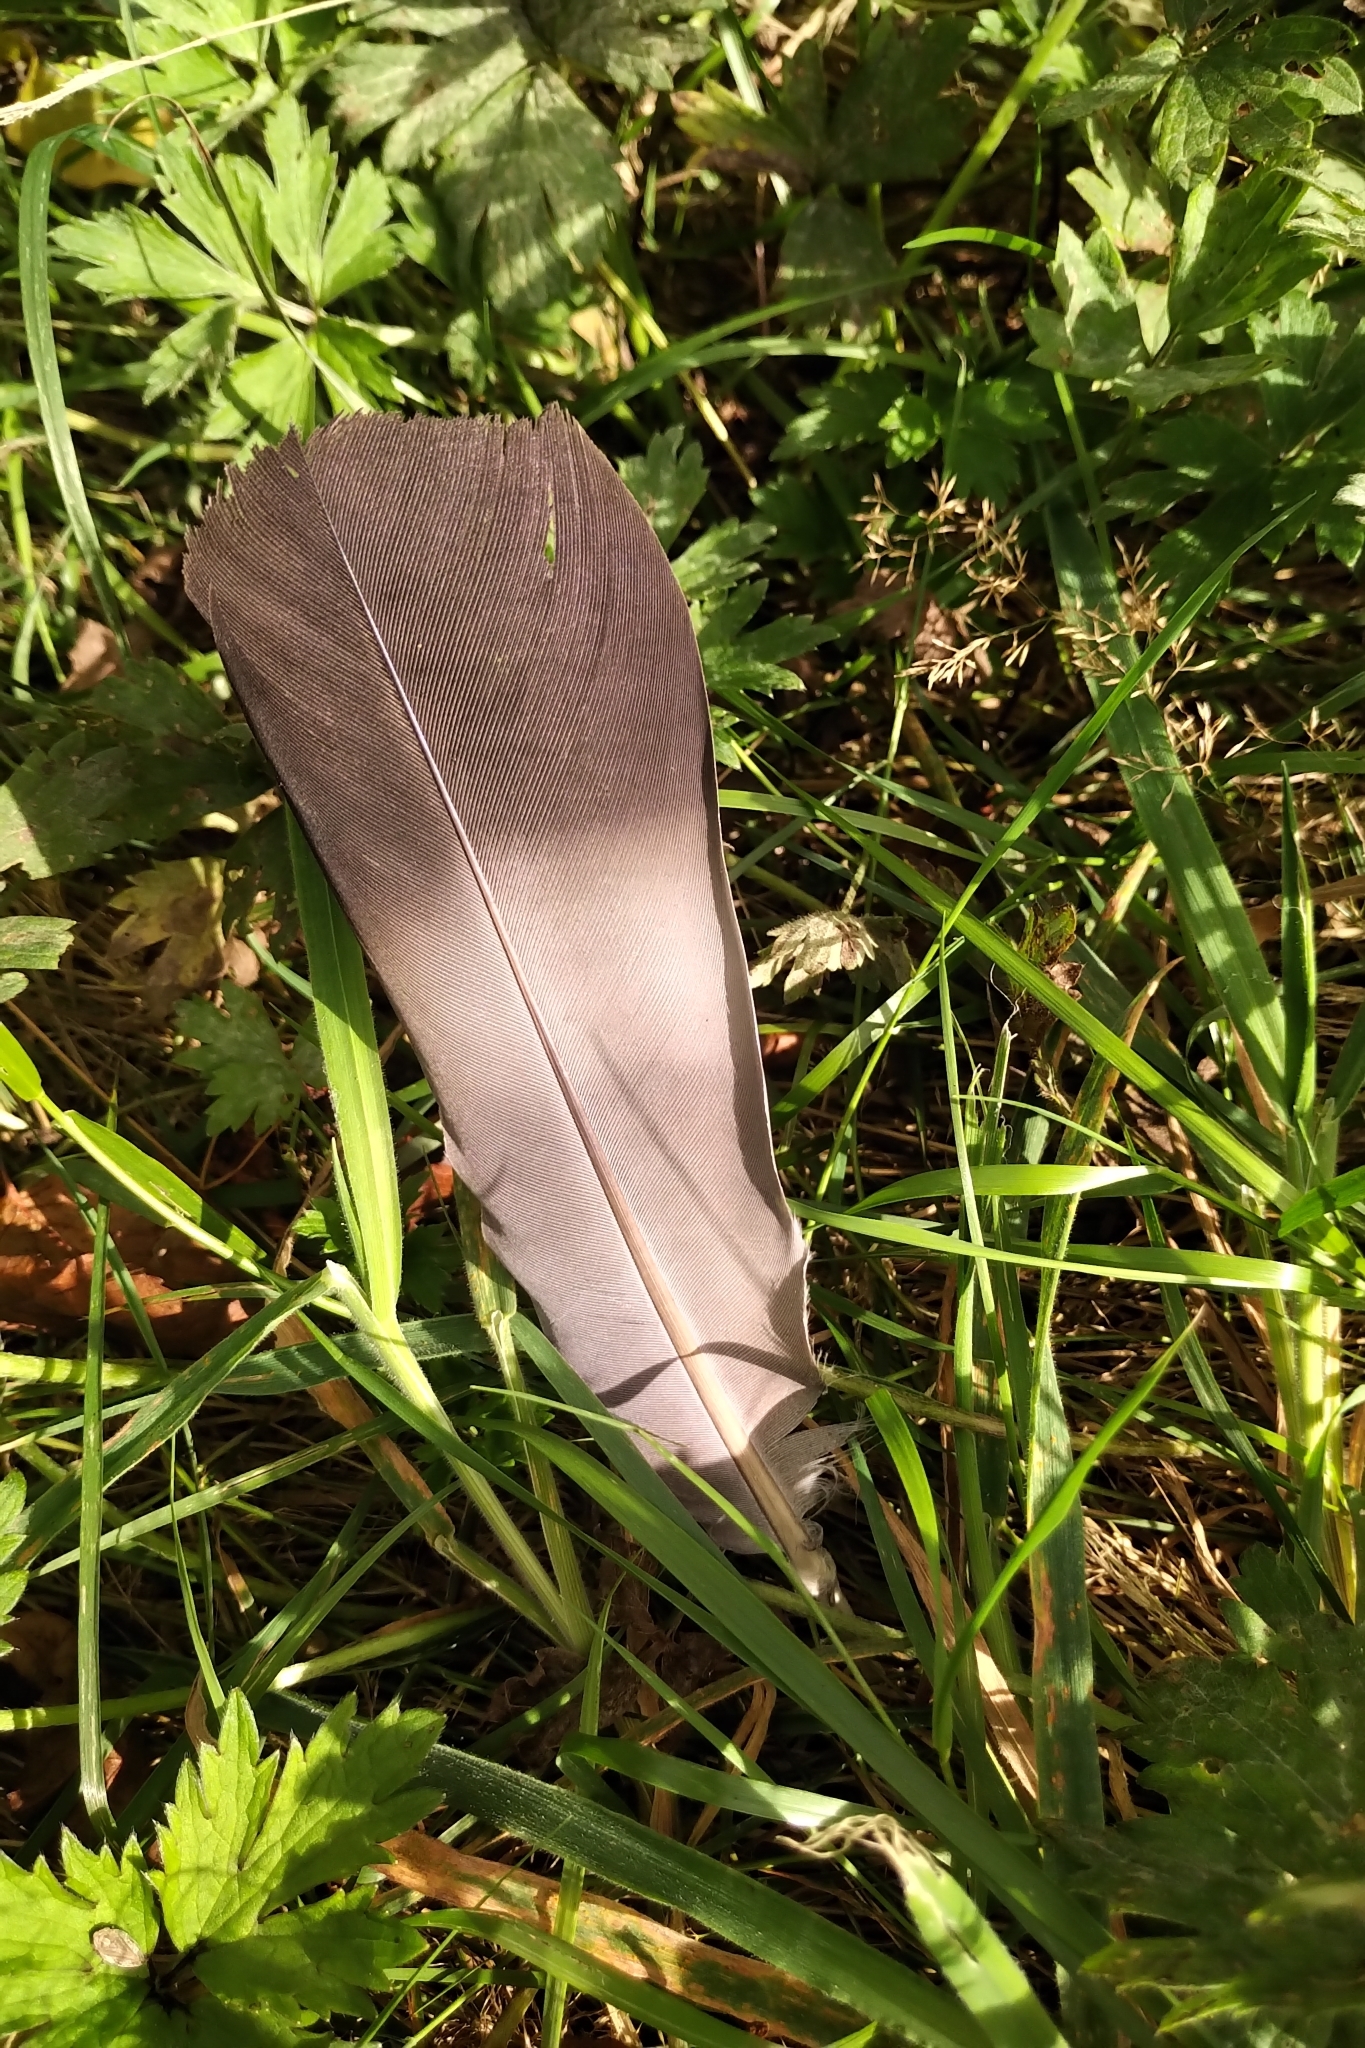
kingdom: Animalia
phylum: Chordata
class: Aves
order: Columbiformes
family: Columbidae
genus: Columba
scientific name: Columba palumbus
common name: Common wood pigeon
